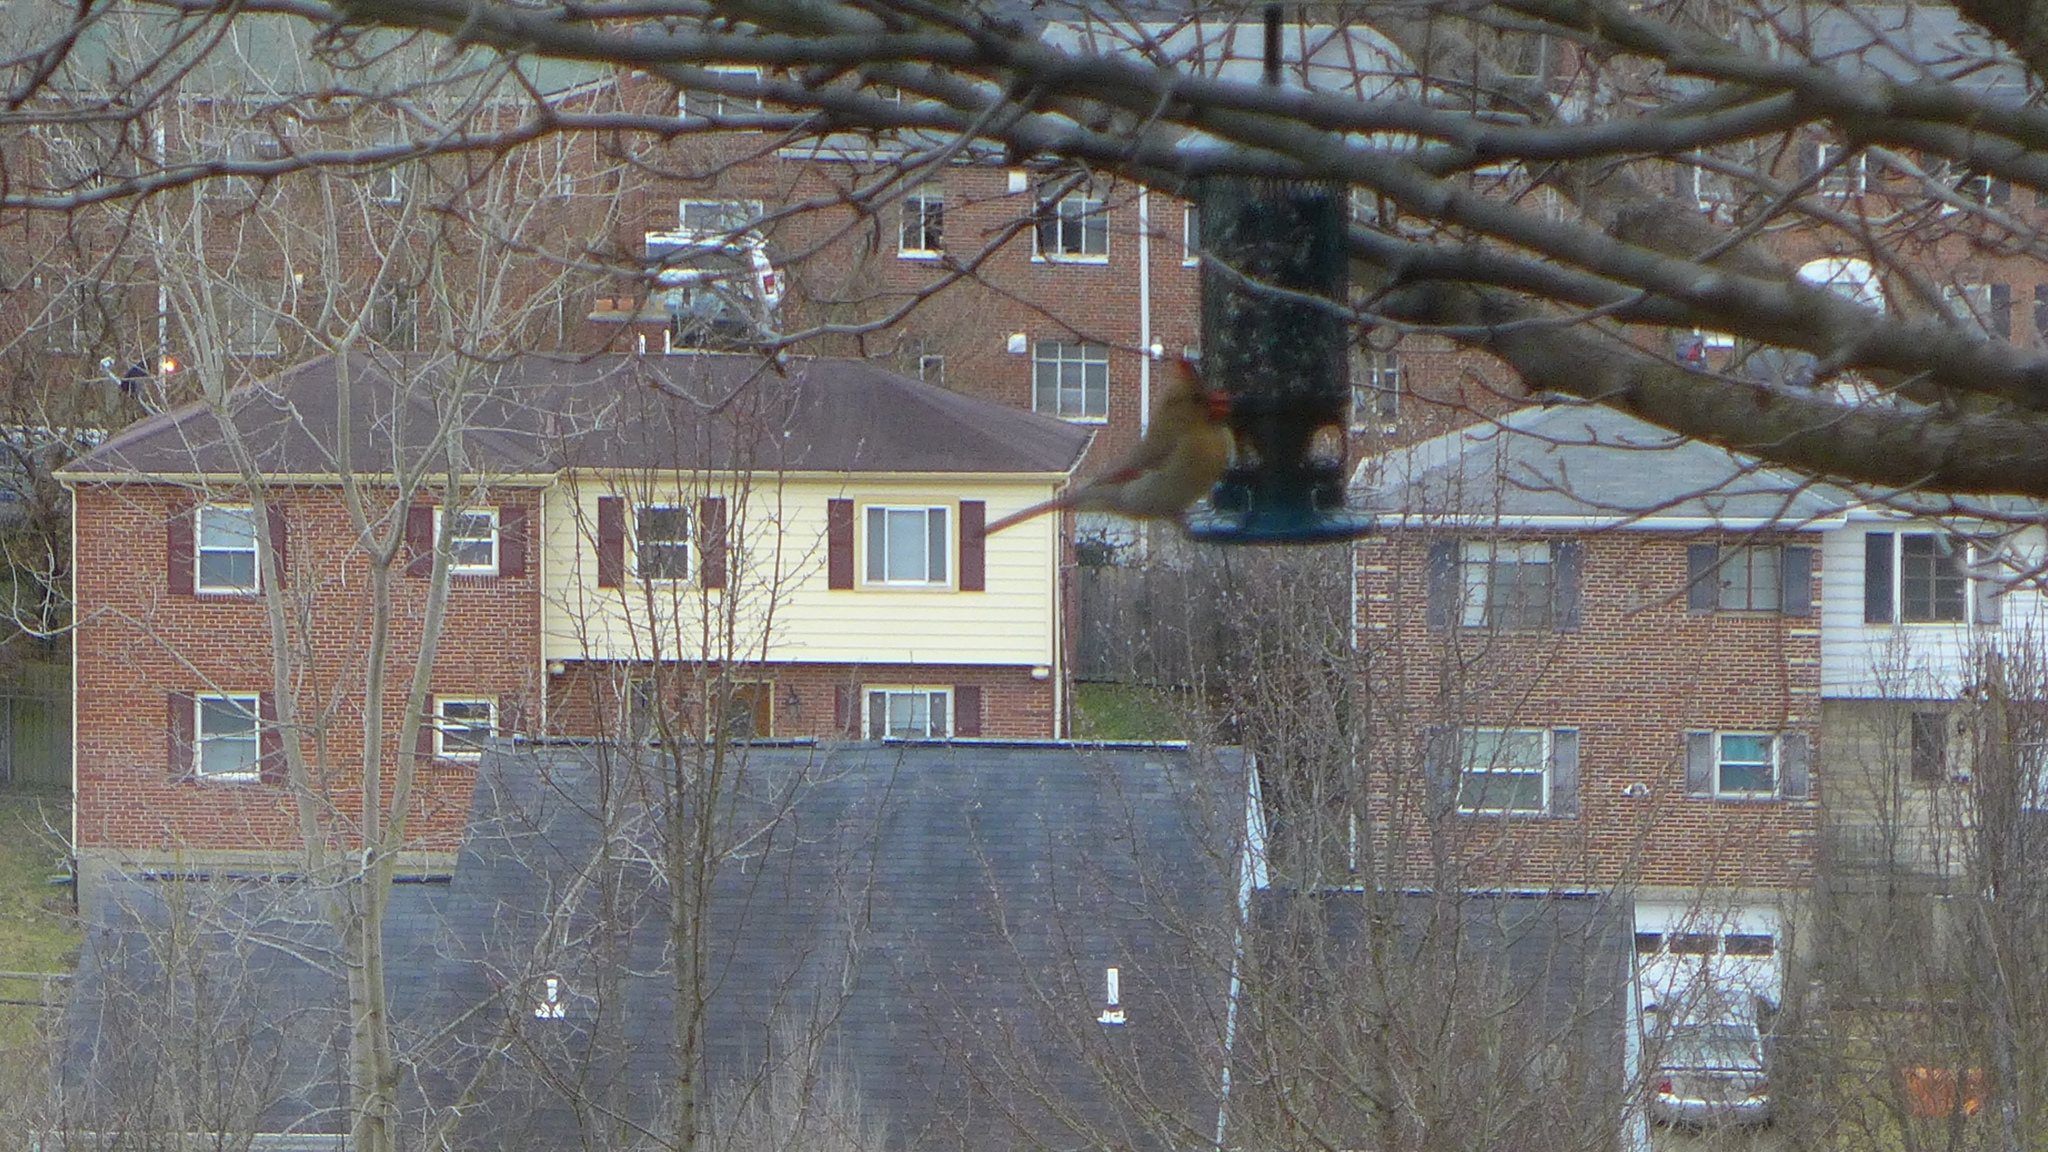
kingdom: Animalia
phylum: Chordata
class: Aves
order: Passeriformes
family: Cardinalidae
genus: Cardinalis
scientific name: Cardinalis cardinalis
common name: Northern cardinal
